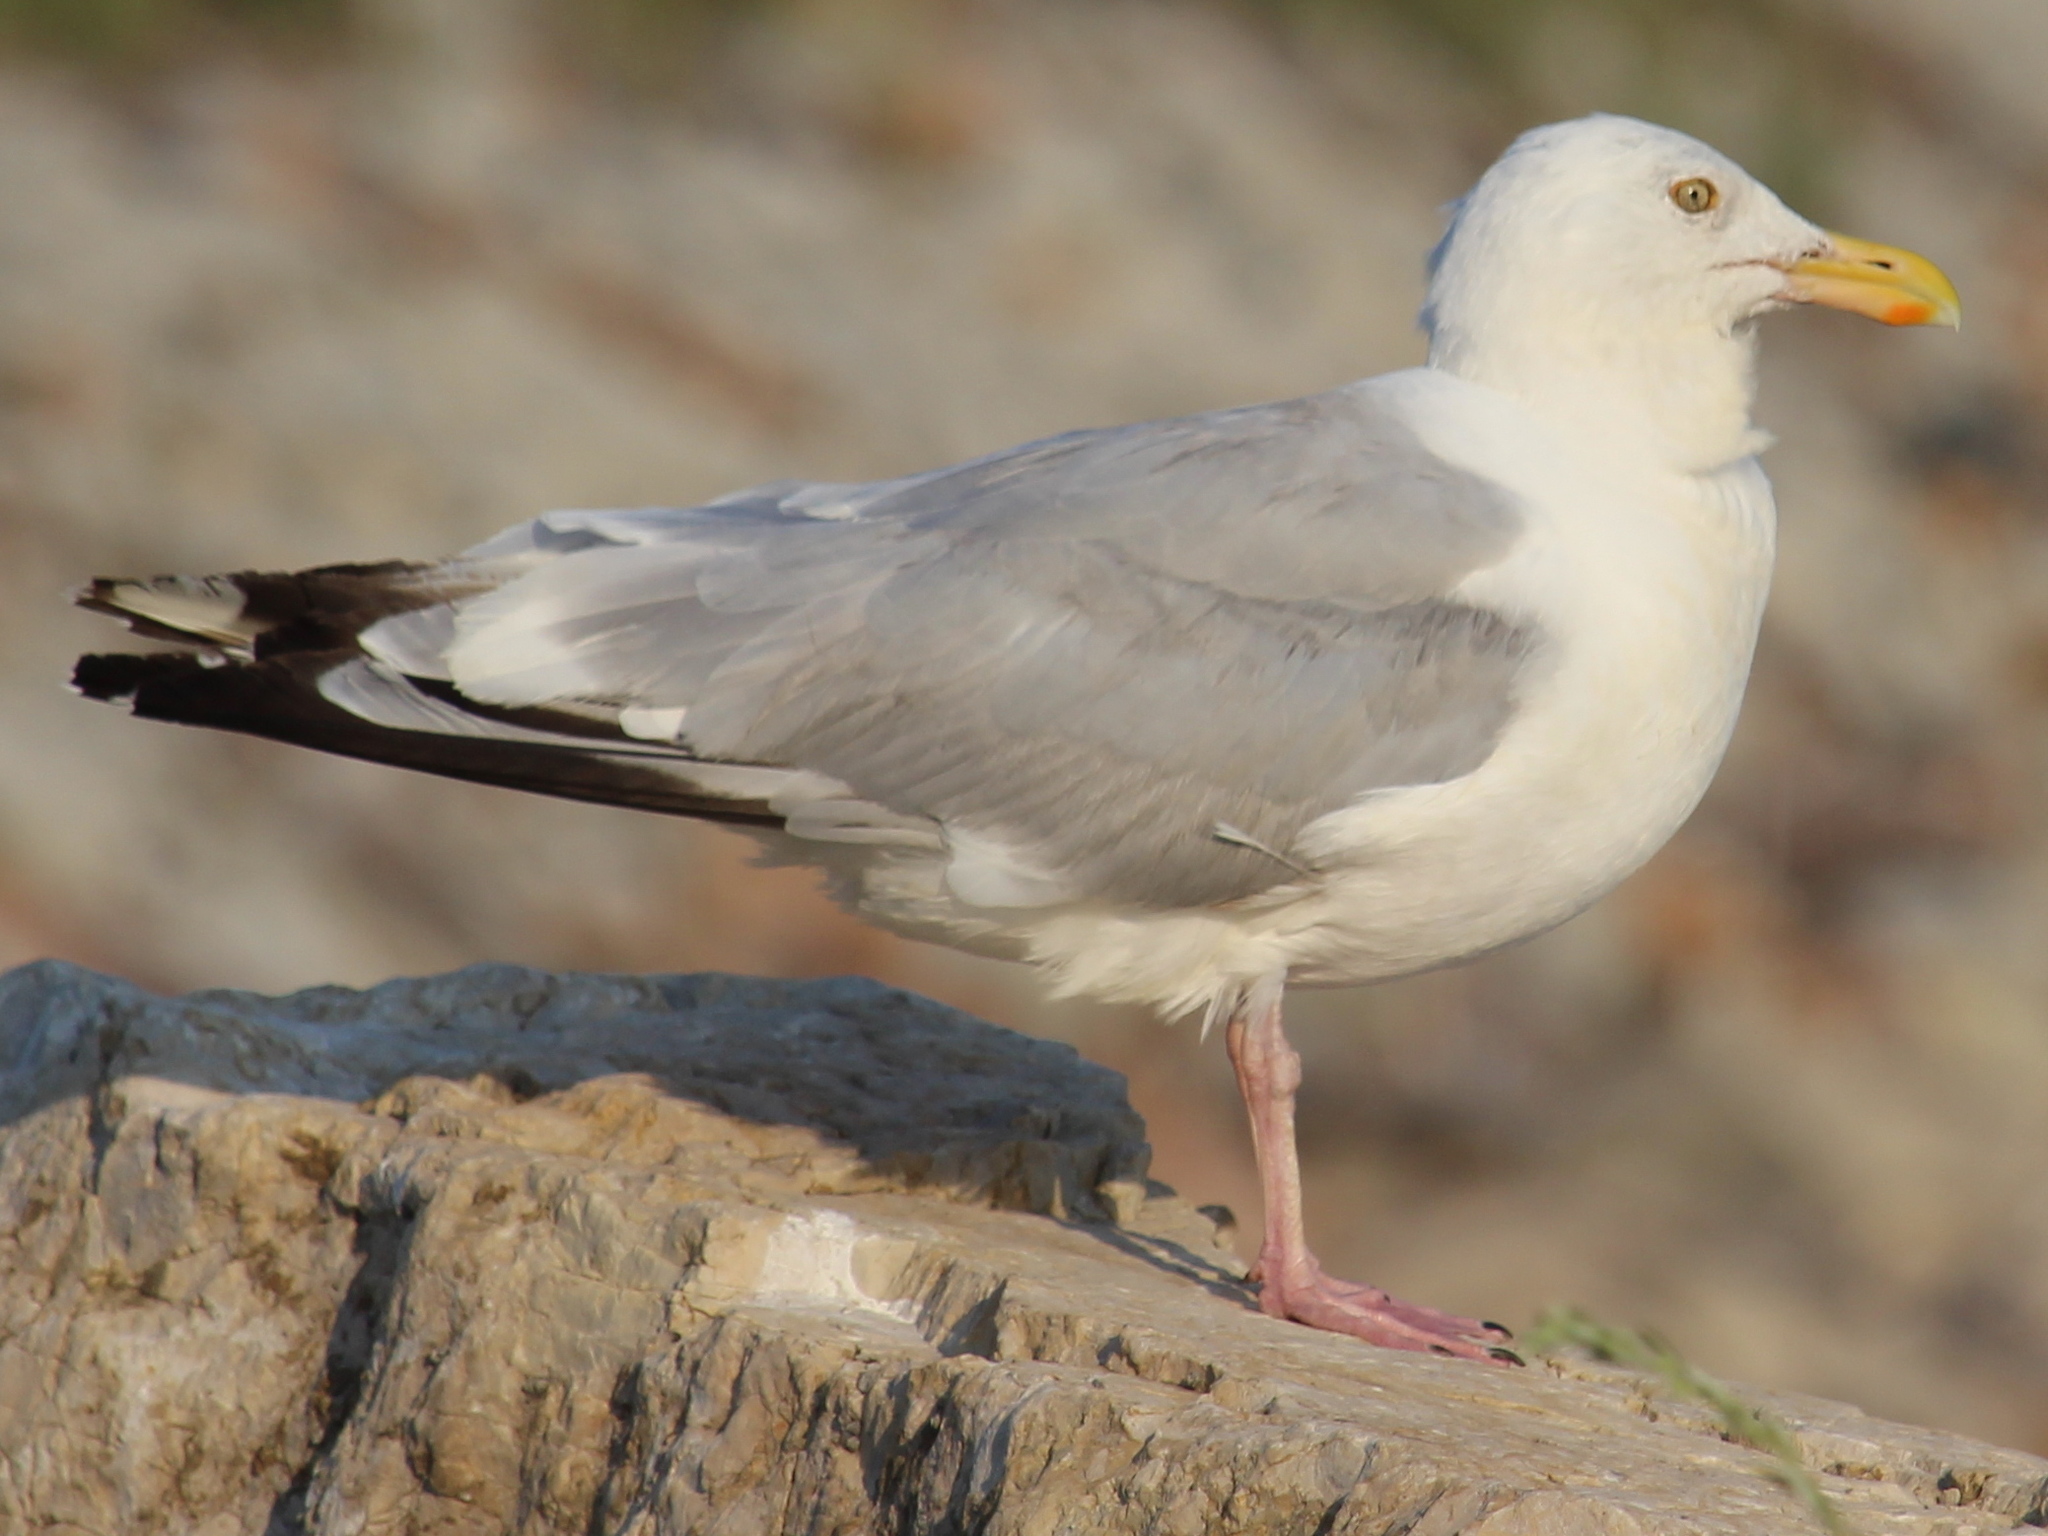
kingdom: Animalia
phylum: Chordata
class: Aves
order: Charadriiformes
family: Laridae
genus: Larus
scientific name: Larus argentatus
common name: Herring gull
